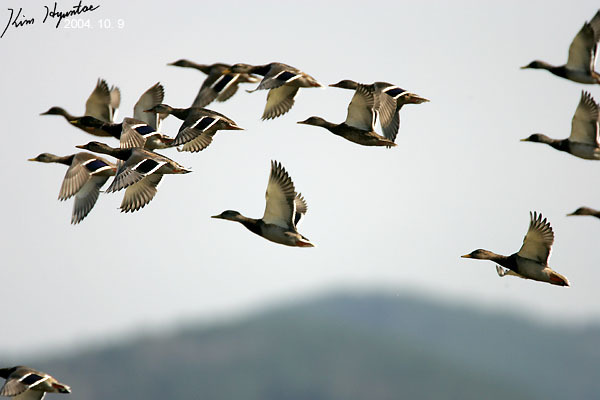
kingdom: Animalia
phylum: Chordata
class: Aves
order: Anseriformes
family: Anatidae
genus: Anas
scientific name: Anas platyrhynchos
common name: Mallard
